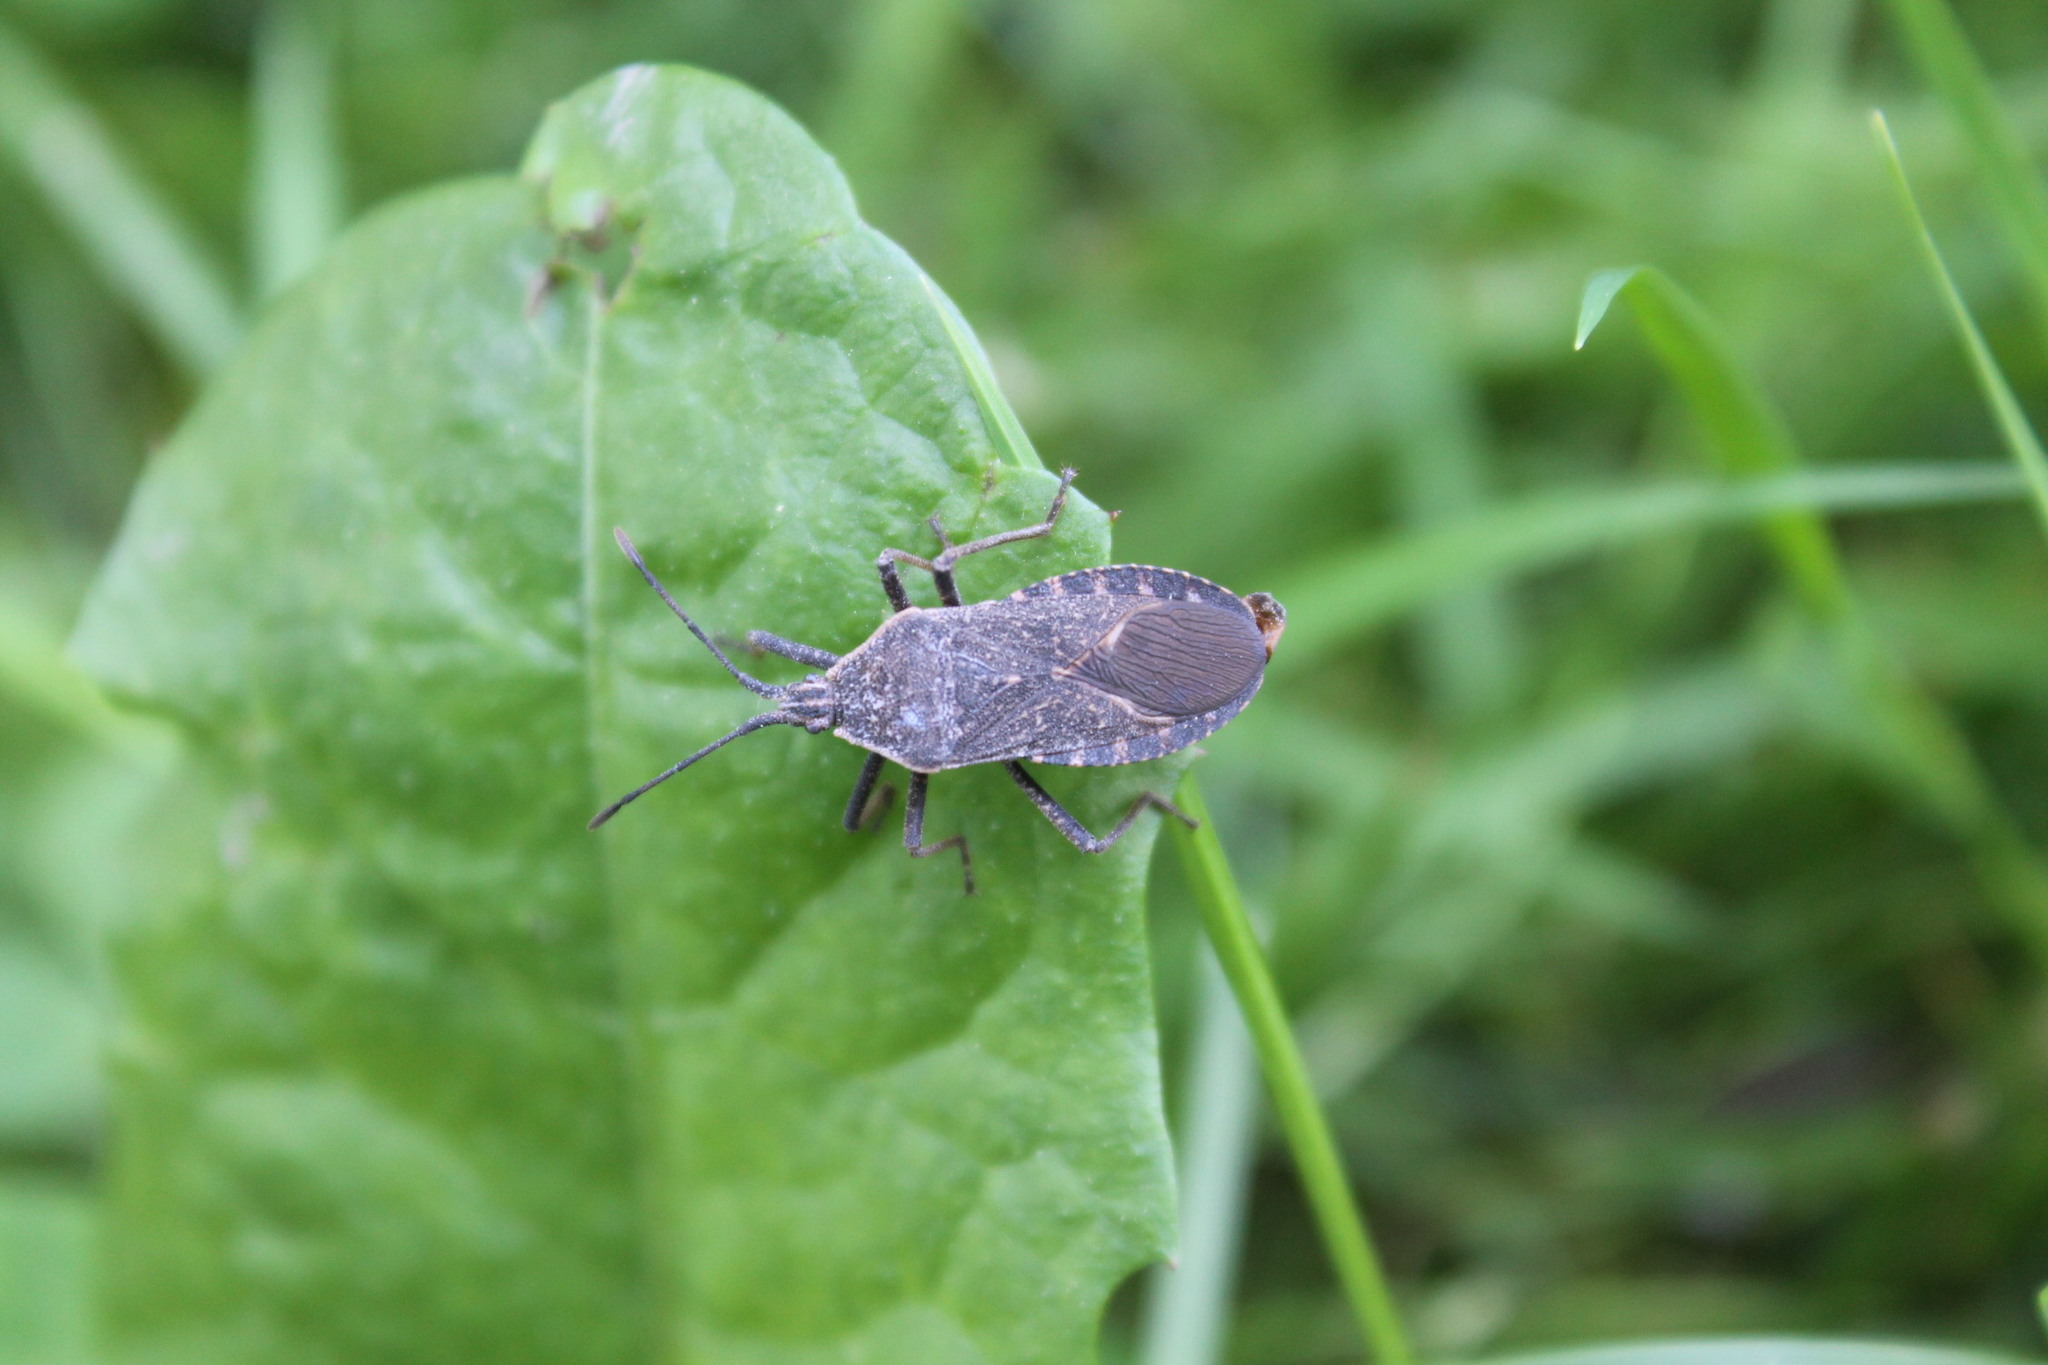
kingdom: Animalia
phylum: Arthropoda
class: Insecta
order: Hemiptera
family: Coreidae
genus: Anasa
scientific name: Anasa tristis
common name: Squash bug
